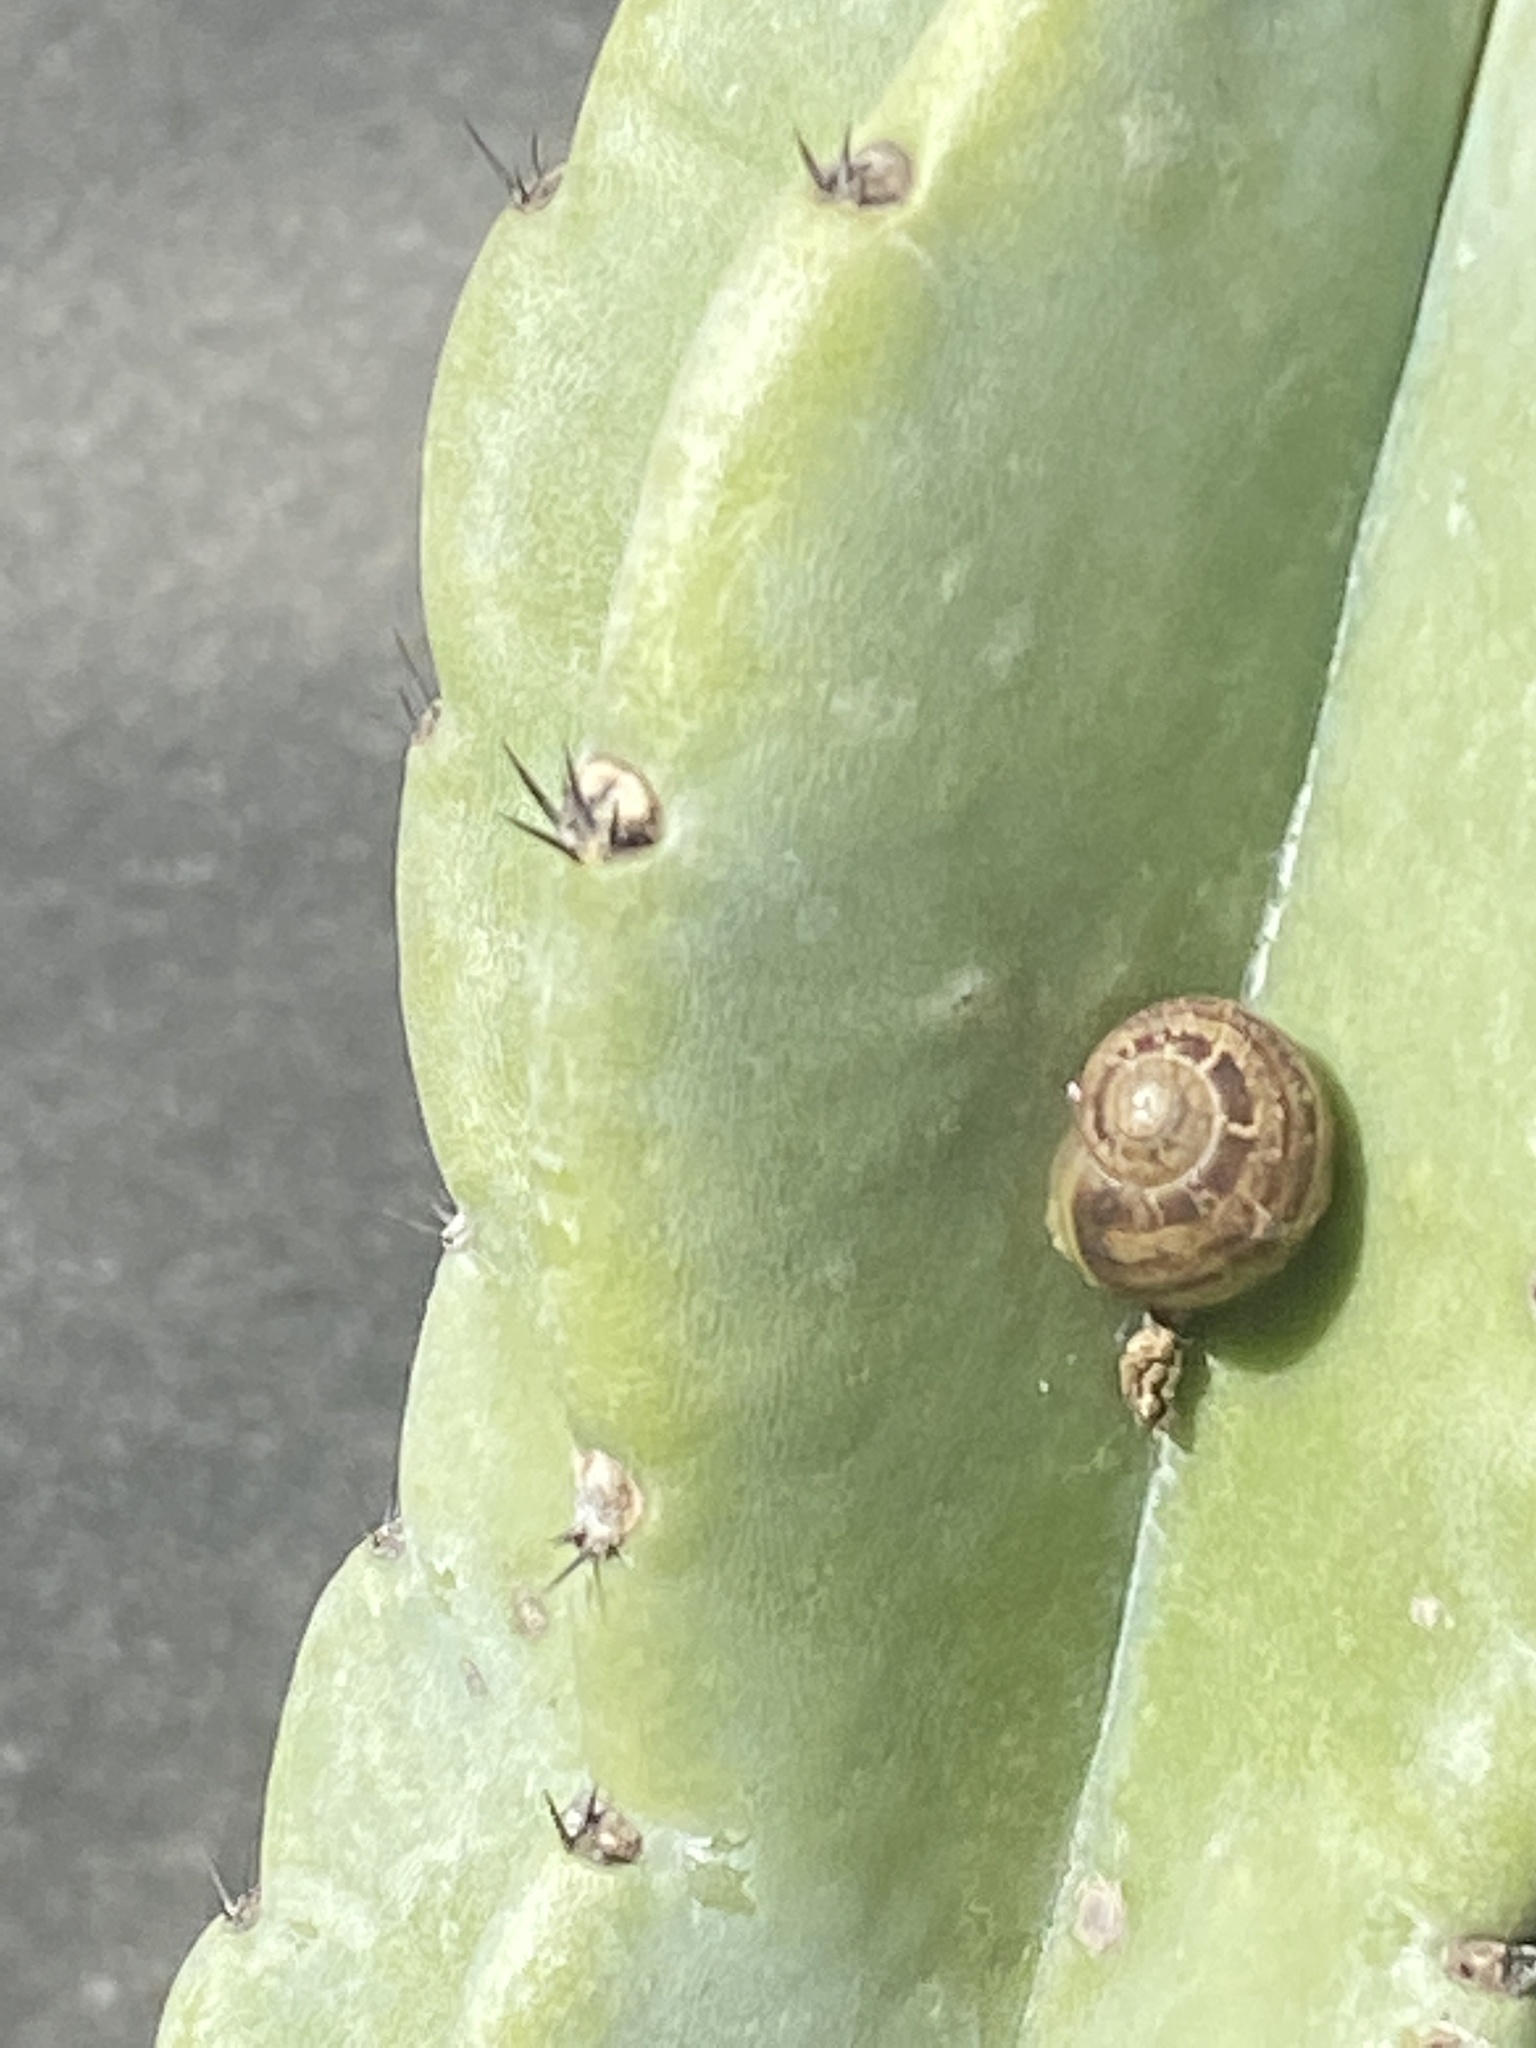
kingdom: Animalia
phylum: Mollusca
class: Gastropoda
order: Stylommatophora
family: Helicidae
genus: Cornu
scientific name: Cornu aspersum
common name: Brown garden snail
